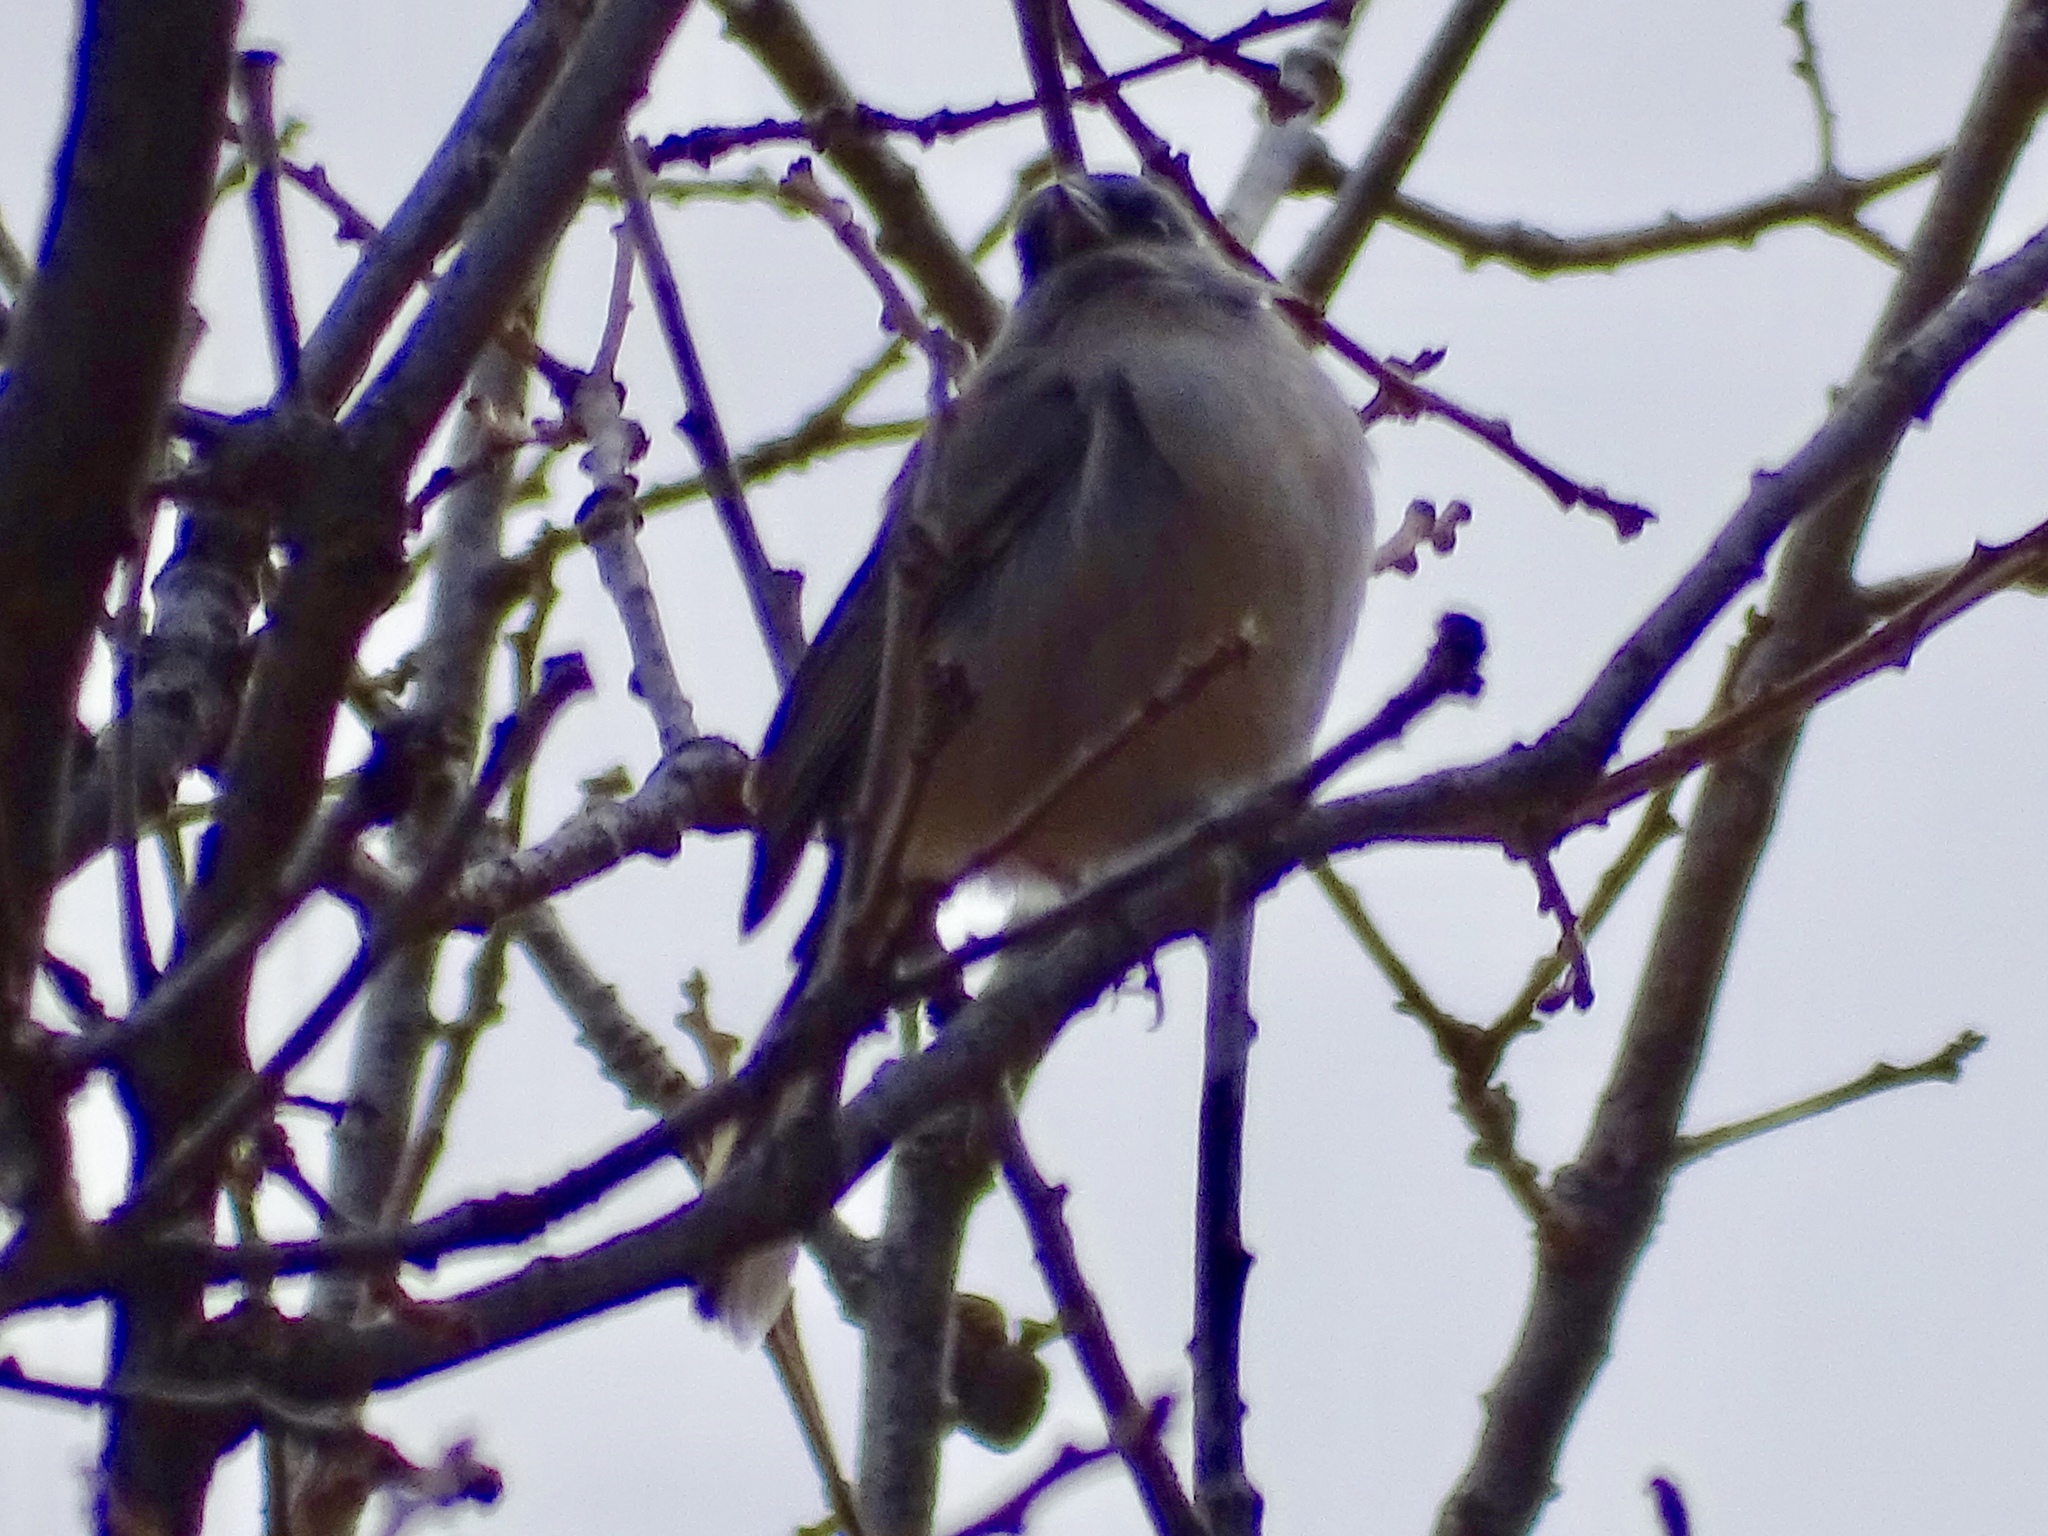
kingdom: Animalia
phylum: Chordata
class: Aves
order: Passeriformes
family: Passerellidae
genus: Junco
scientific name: Junco hyemalis
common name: Dark-eyed junco
